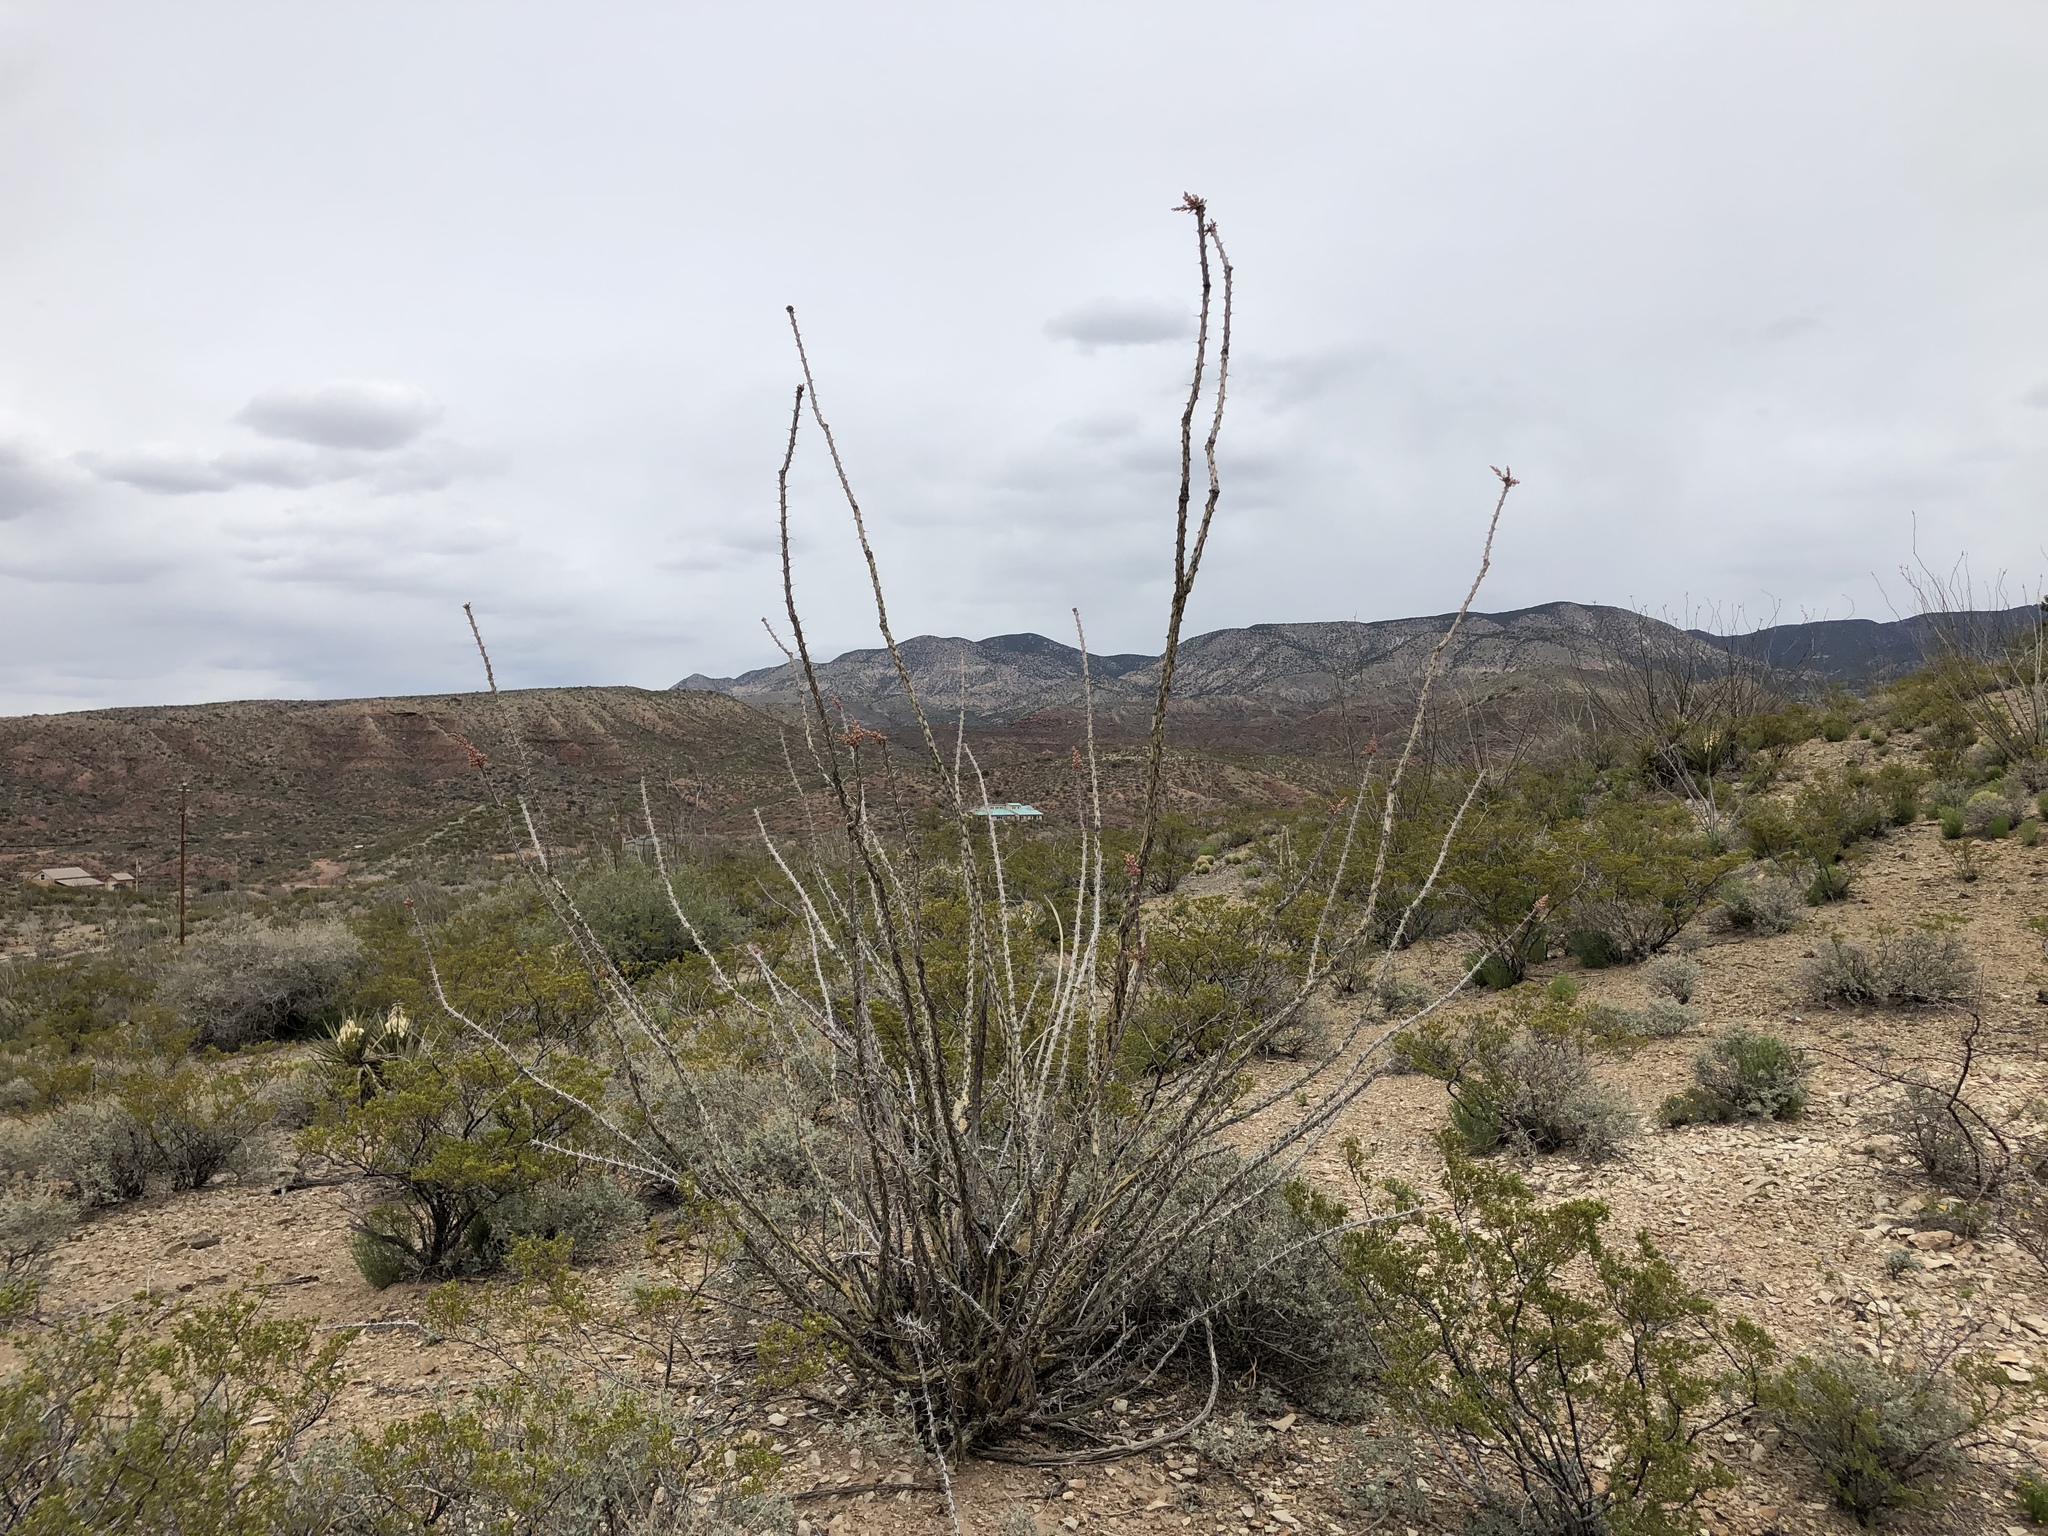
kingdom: Plantae
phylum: Tracheophyta
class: Magnoliopsida
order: Ericales
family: Fouquieriaceae
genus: Fouquieria
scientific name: Fouquieria splendens
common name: Vine-cactus
